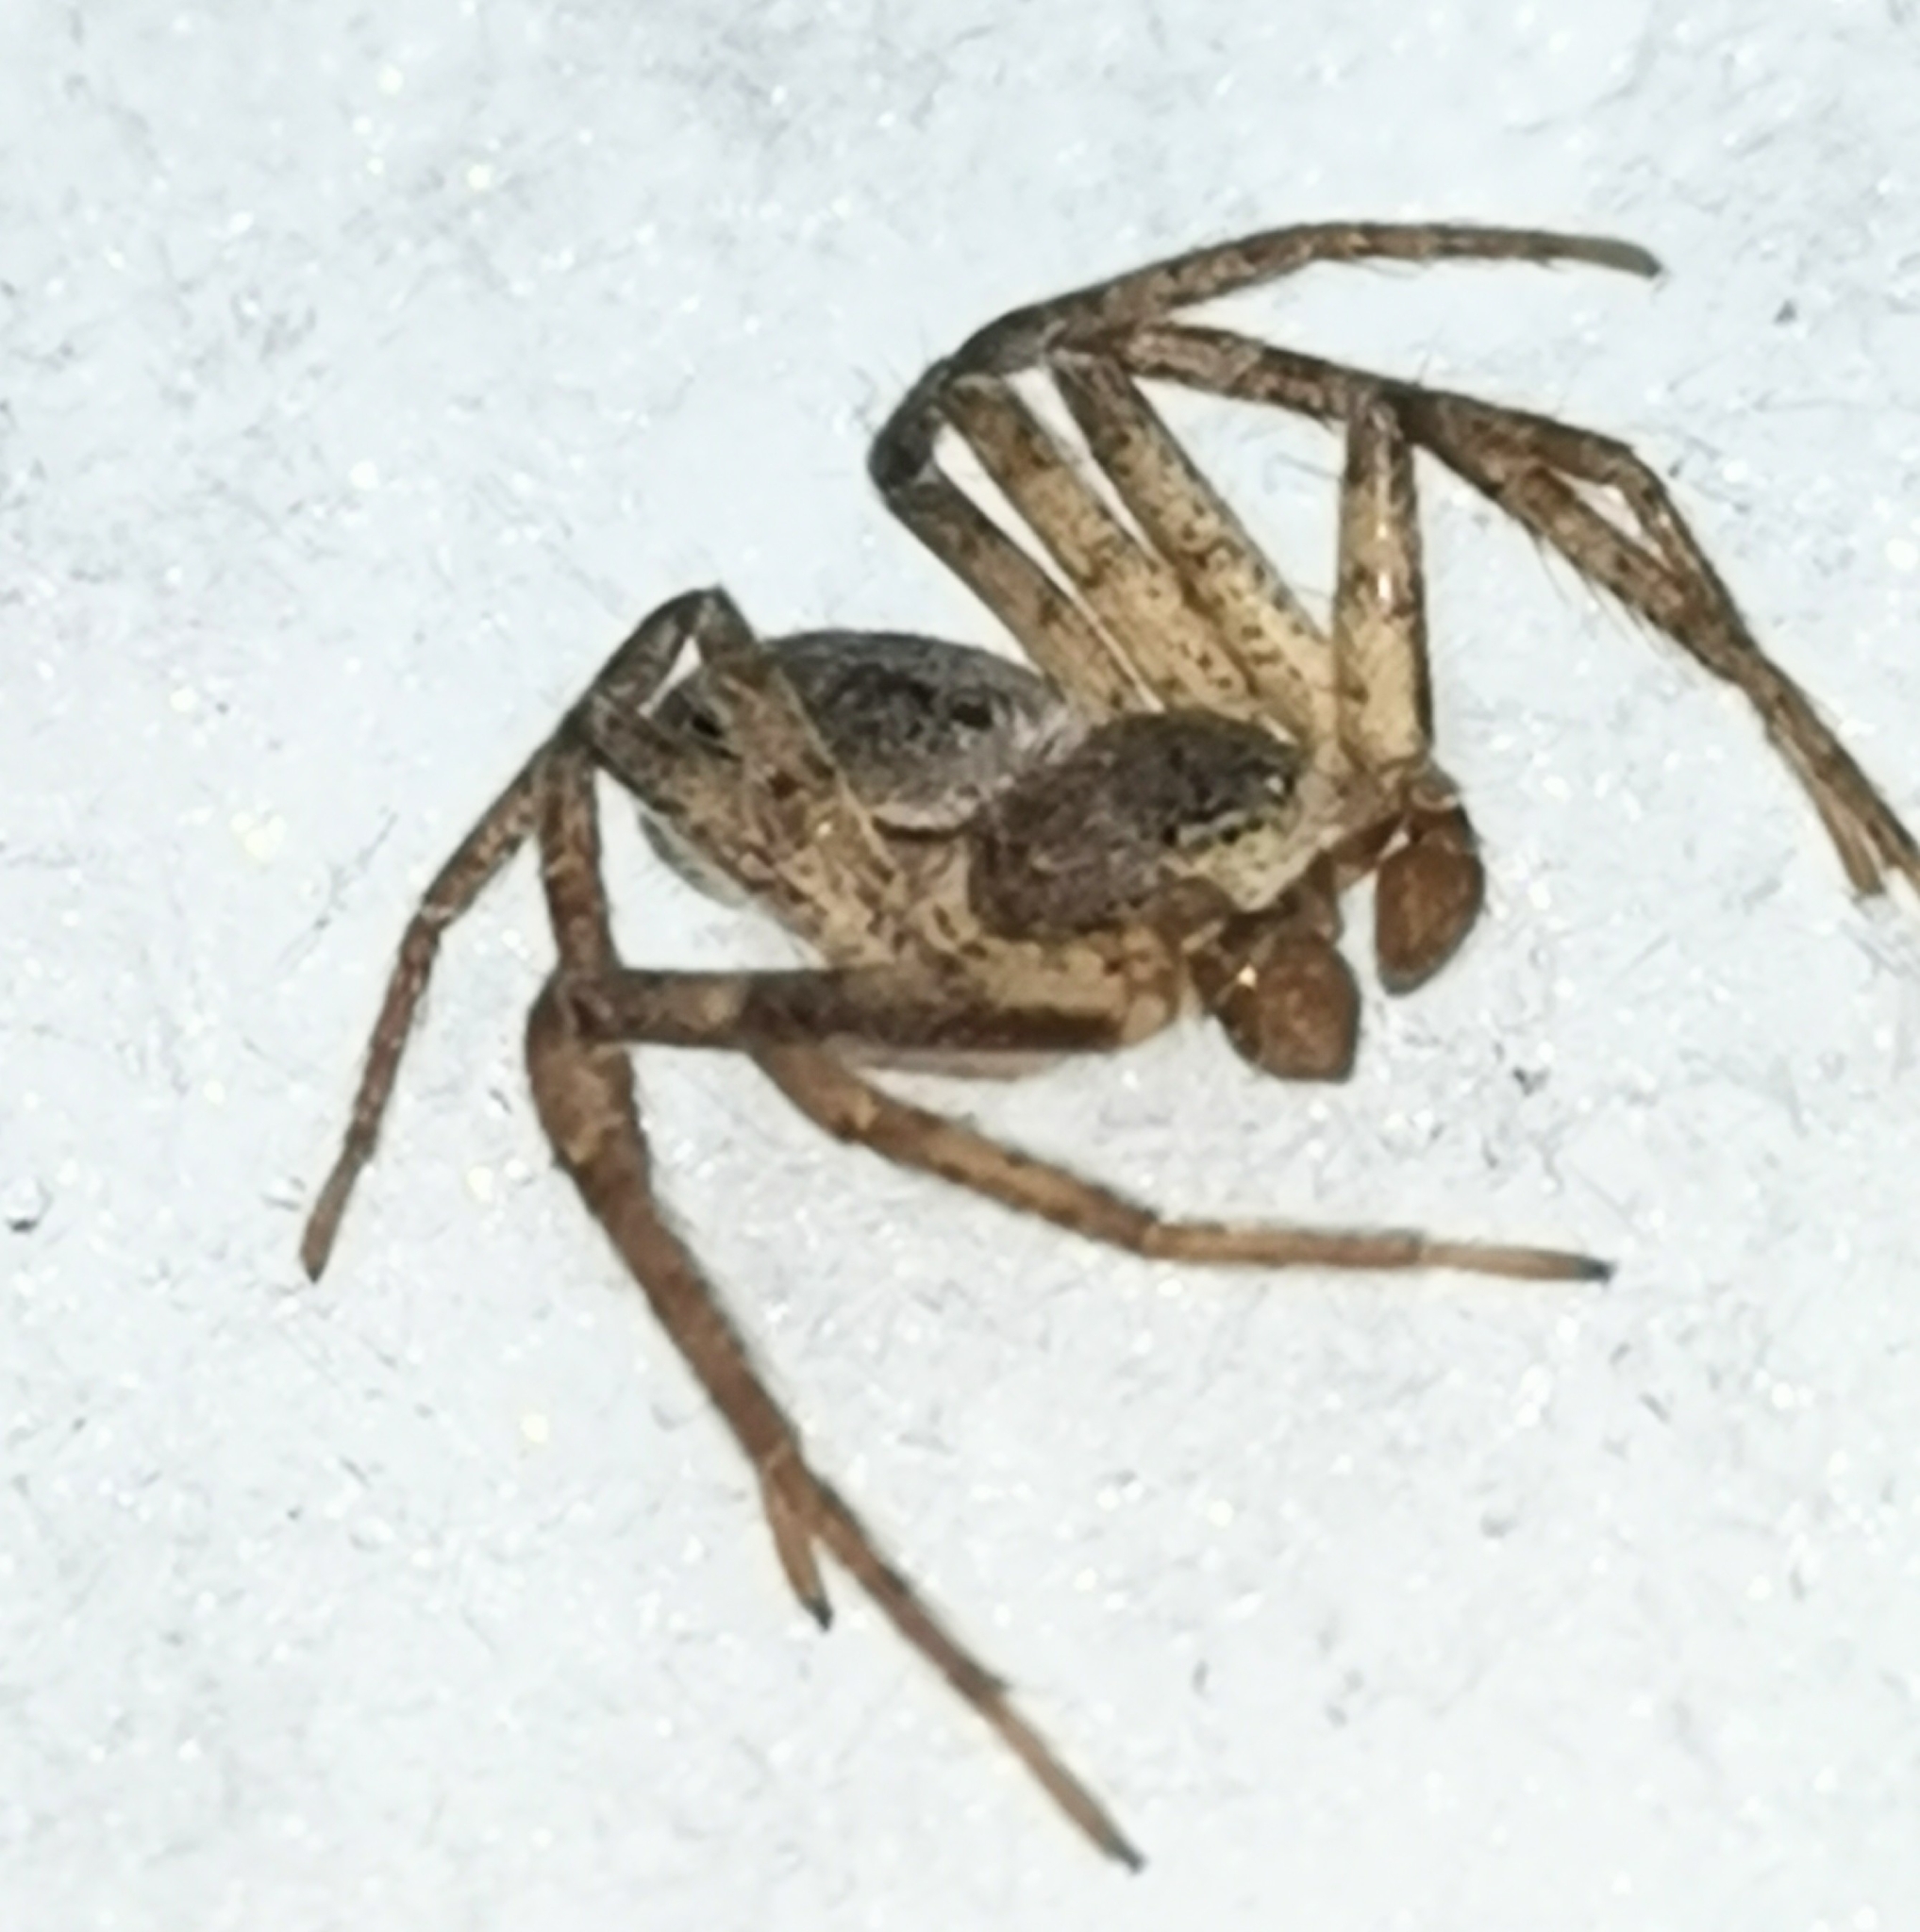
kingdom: Animalia
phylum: Arthropoda
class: Arachnida
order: Araneae
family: Philodromidae
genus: Philodromus
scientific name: Philodromus fuscomarginatus
